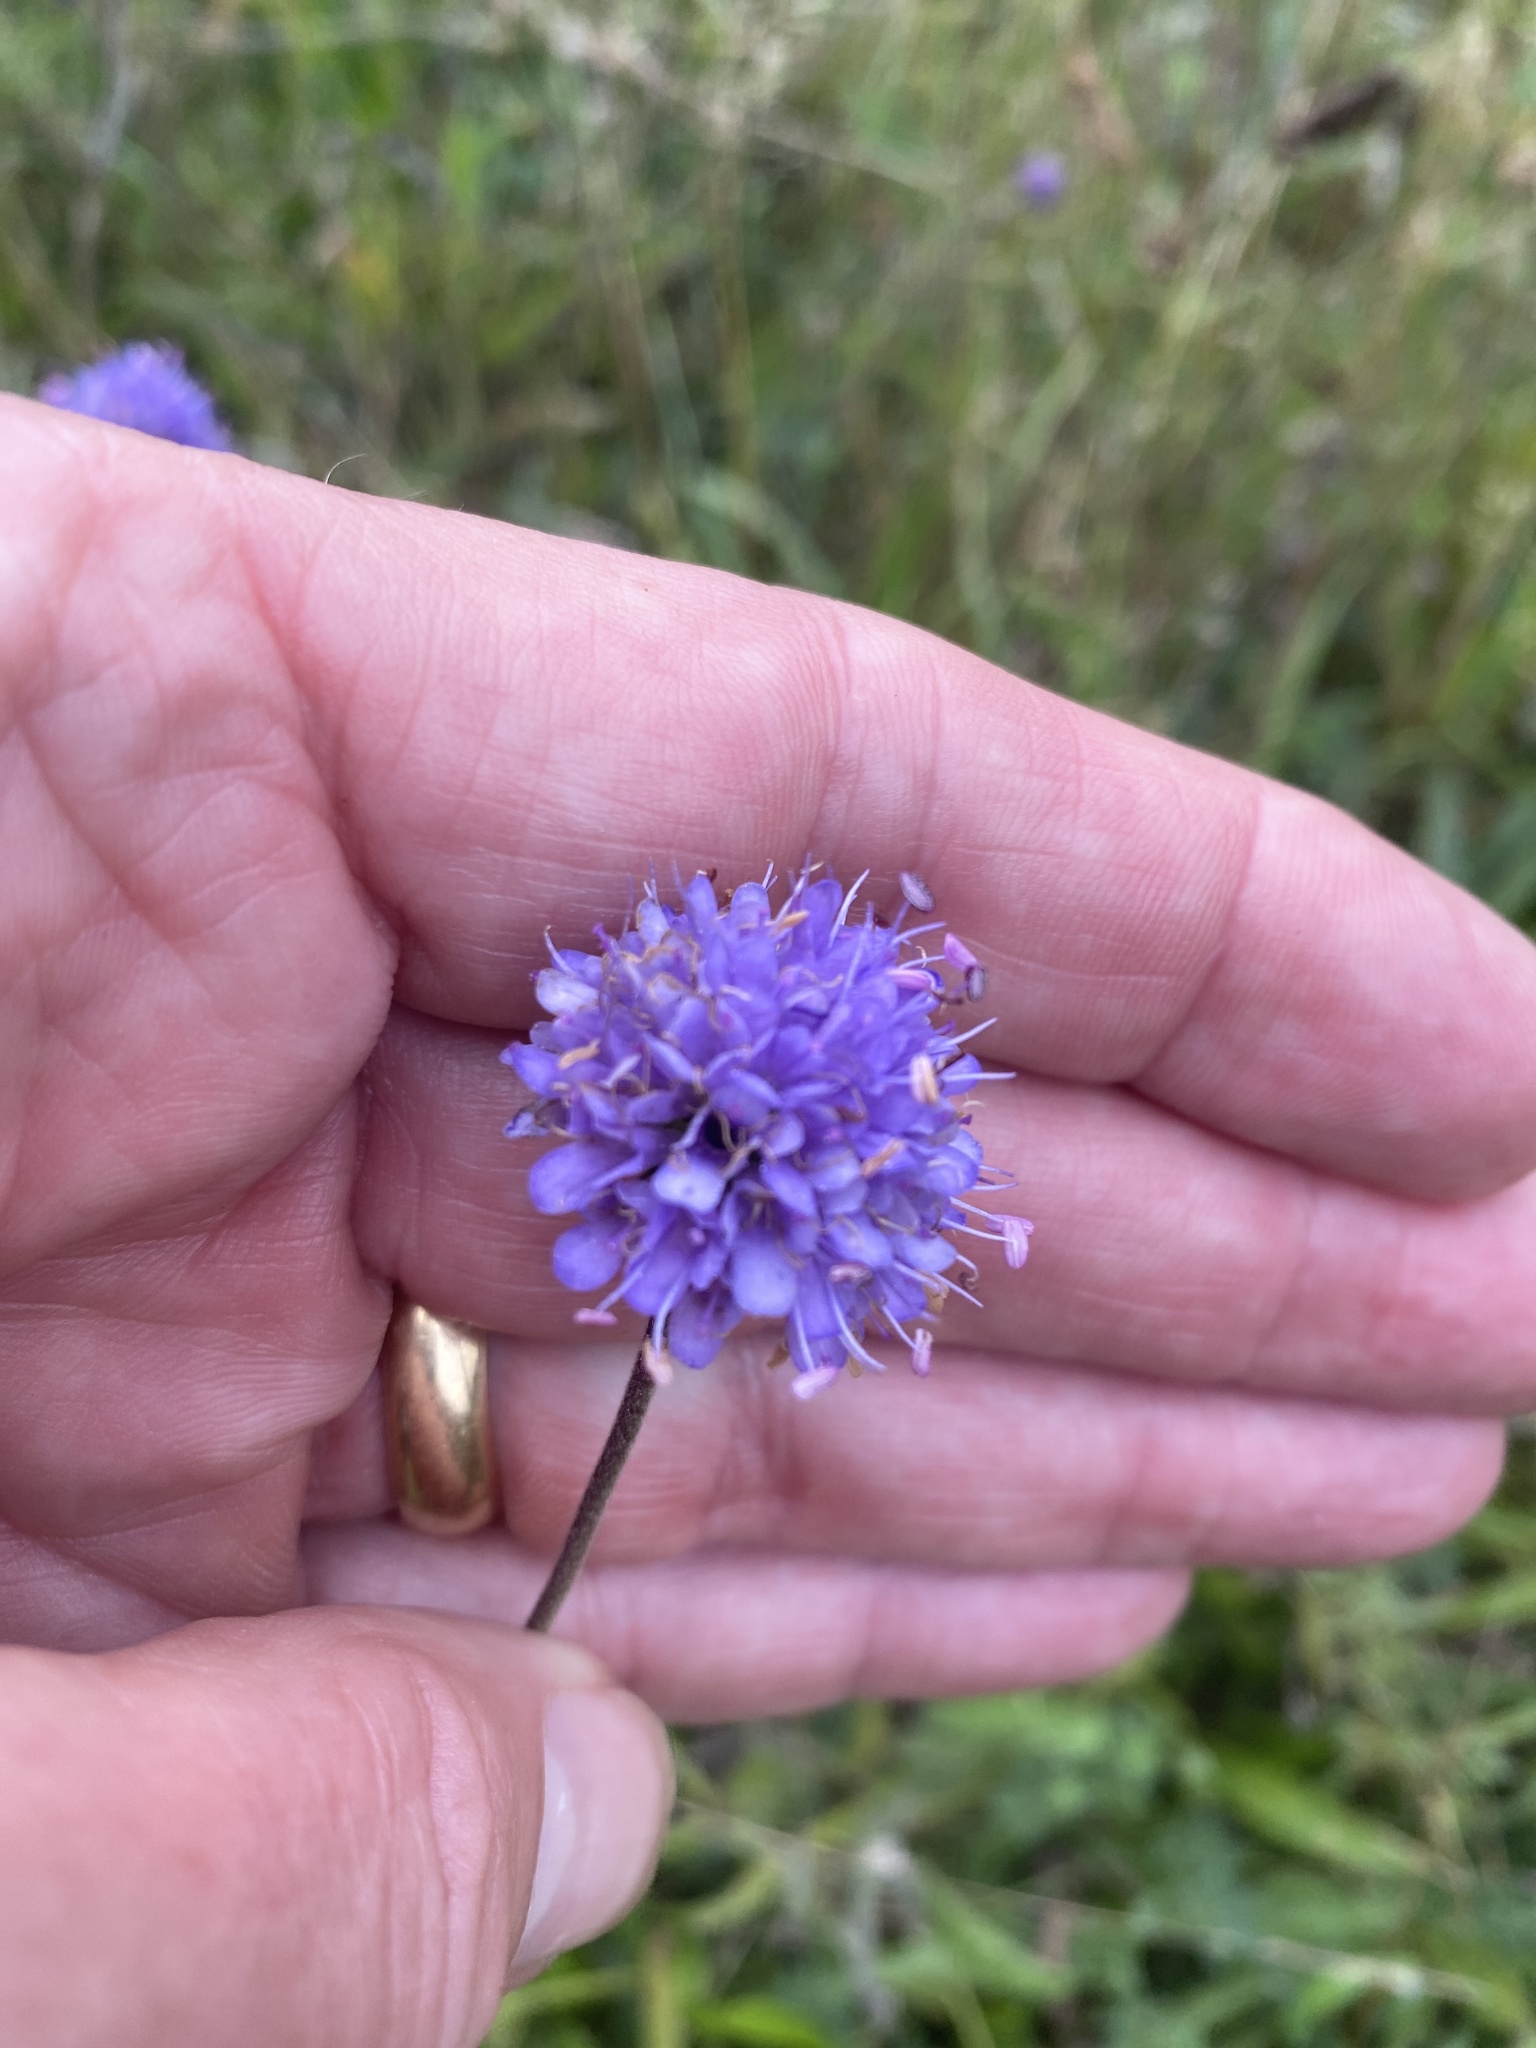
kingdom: Plantae
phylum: Tracheophyta
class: Magnoliopsida
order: Dipsacales
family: Caprifoliaceae
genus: Succisa
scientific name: Succisa pratensis
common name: Devil's-bit
